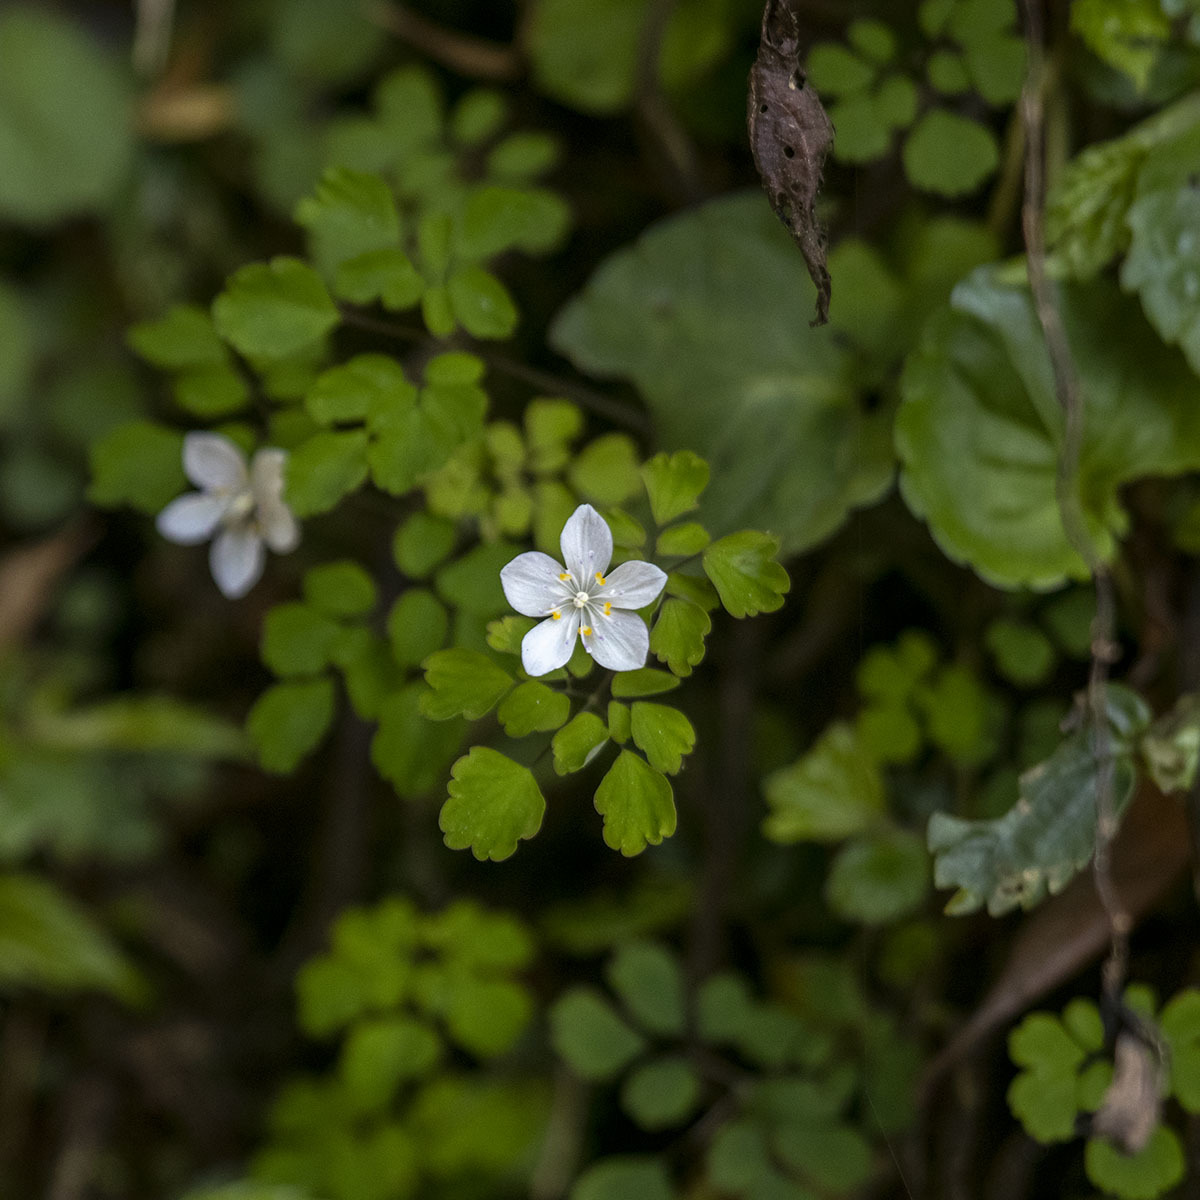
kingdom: Plantae
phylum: Tracheophyta
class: Magnoliopsida
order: Ranunculales
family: Ranunculaceae
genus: Dichocarpum
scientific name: Dichocarpum adiantifolium
